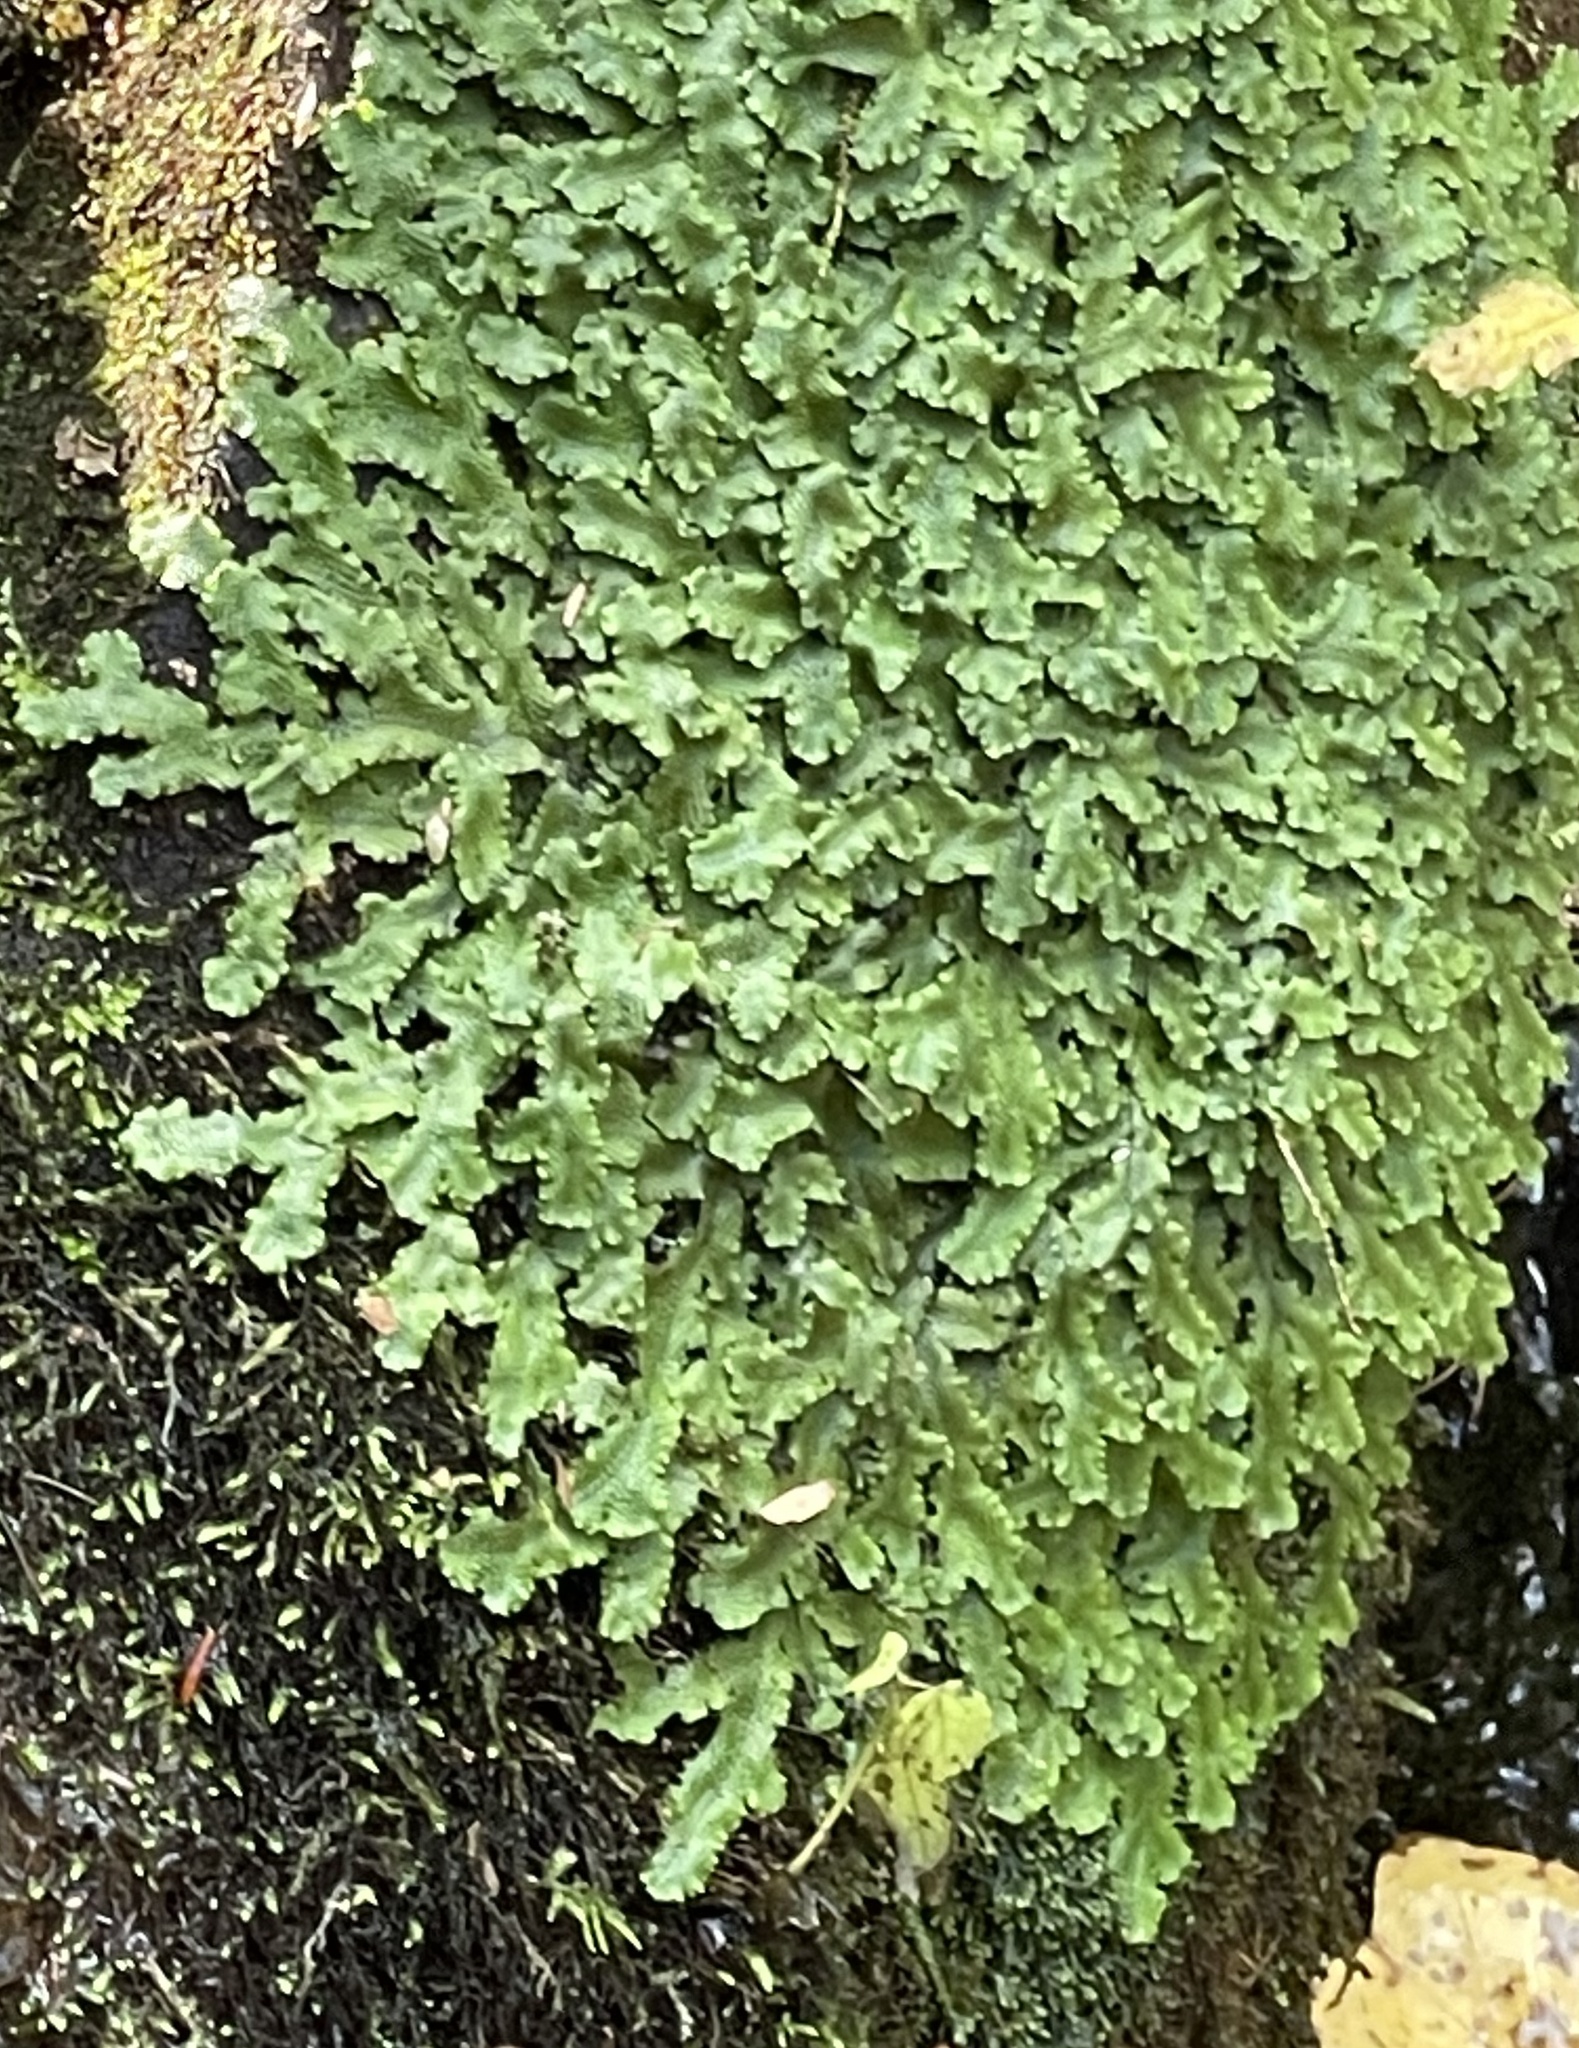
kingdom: Plantae
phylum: Marchantiophyta
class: Marchantiopsida
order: Marchantiales
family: Conocephalaceae
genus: Conocephalum
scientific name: Conocephalum salebrosum
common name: Cat-tongue liverwort
